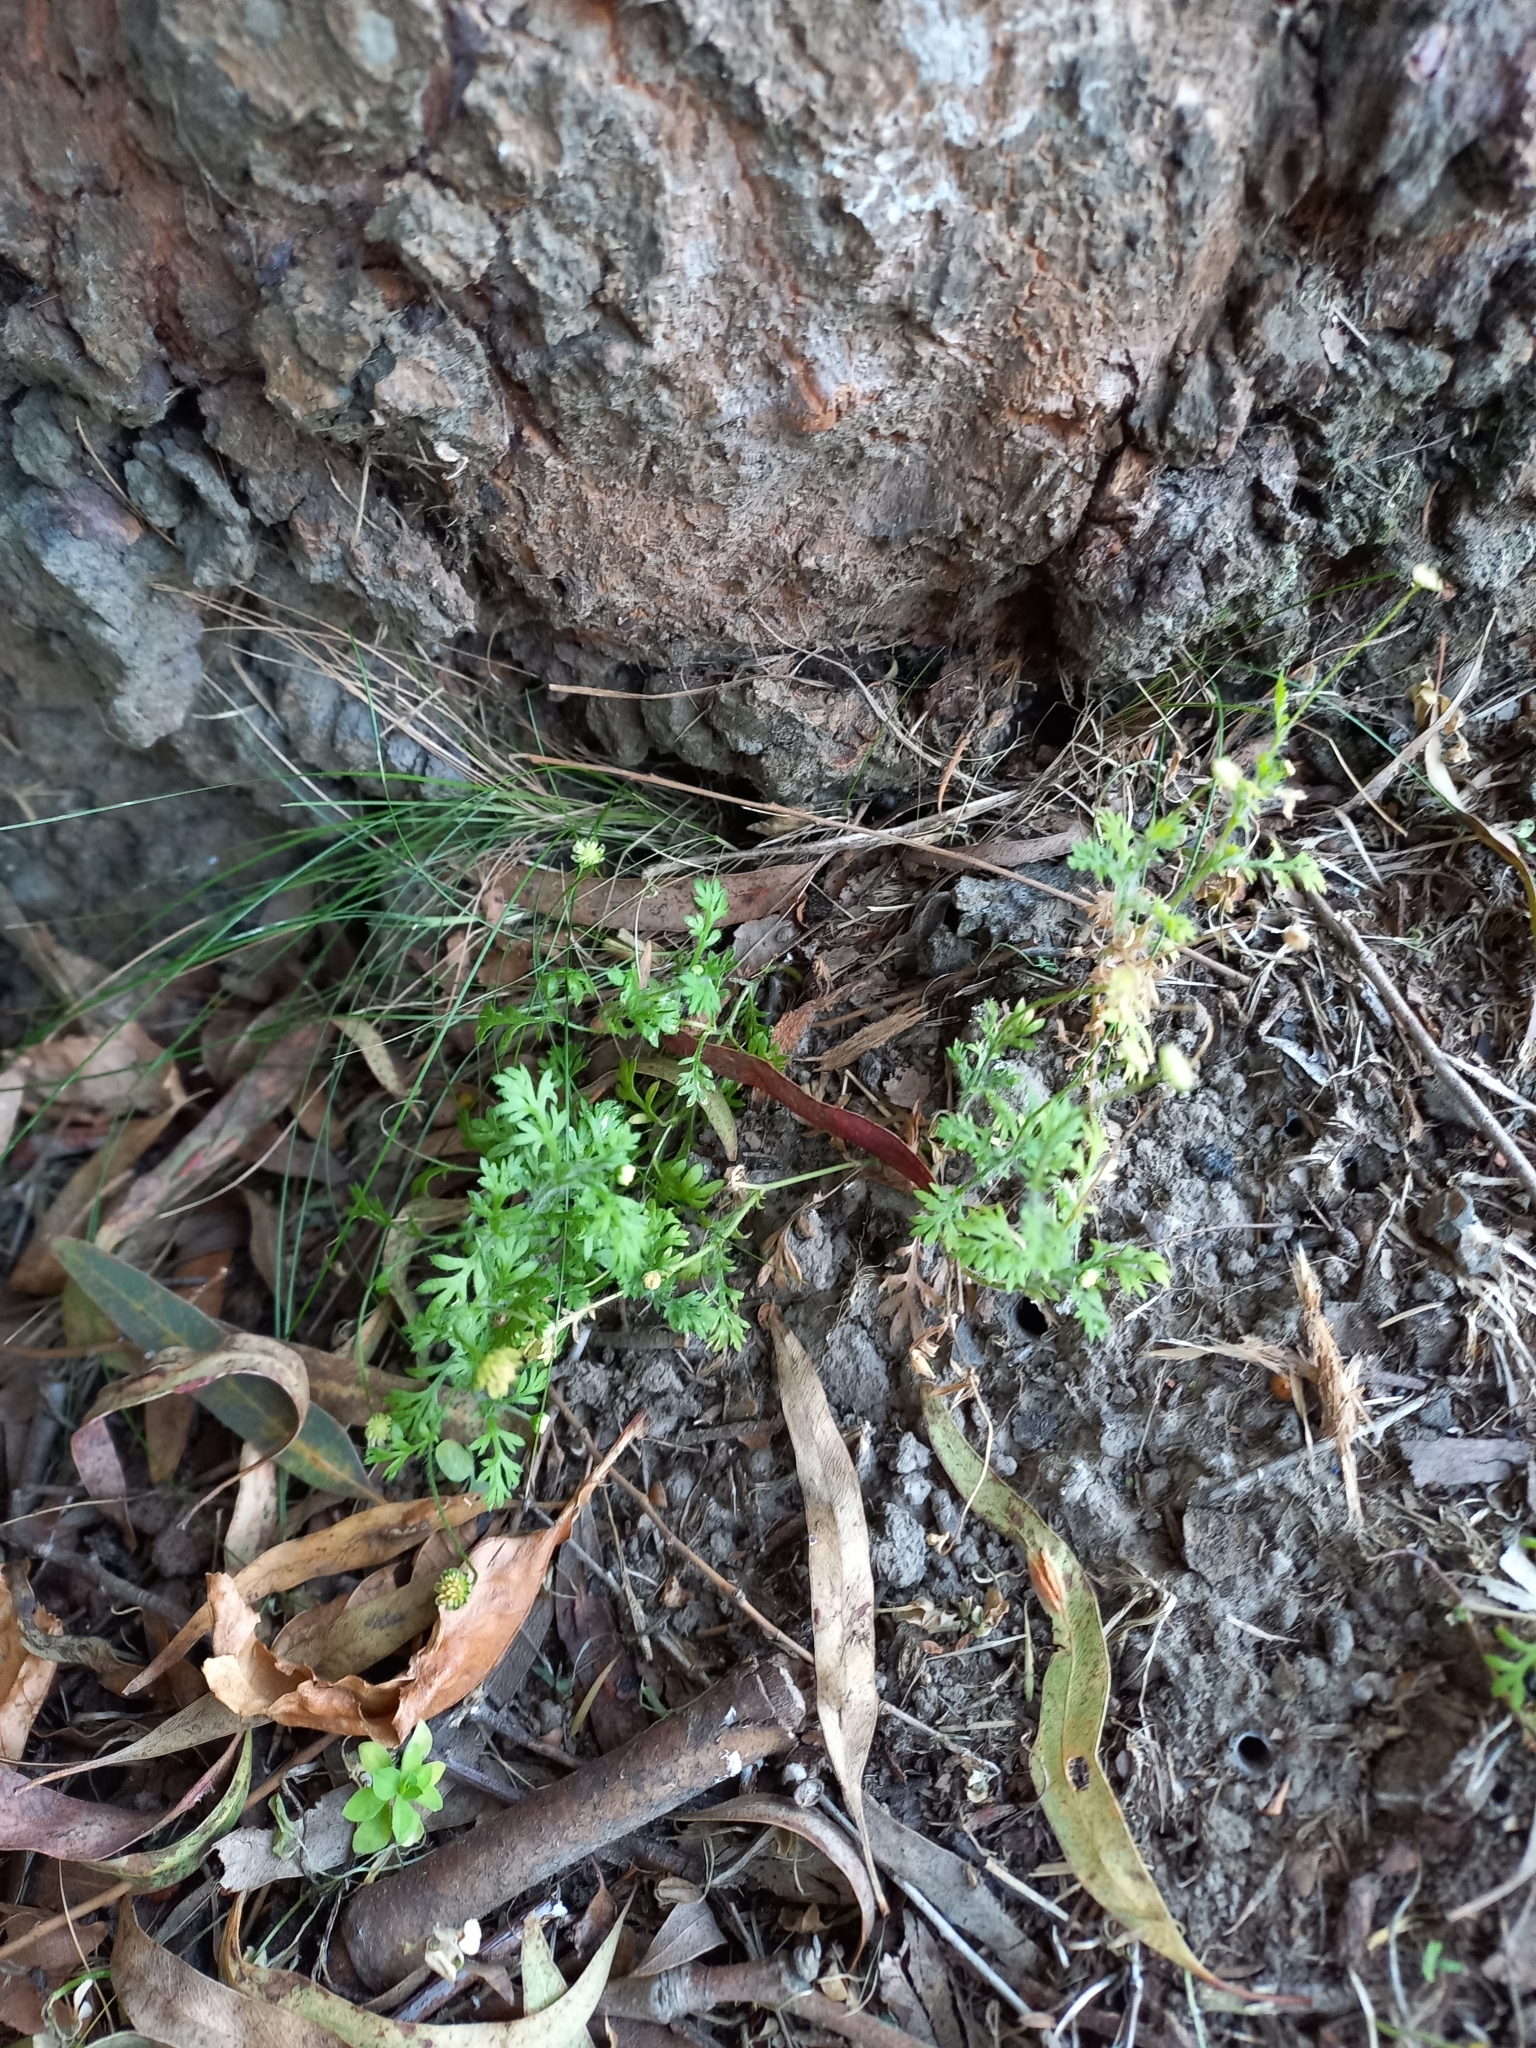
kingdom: Plantae
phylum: Tracheophyta
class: Magnoliopsida
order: Asterales
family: Asteraceae
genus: Cotula
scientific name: Cotula australis
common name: Australian waterbuttons
